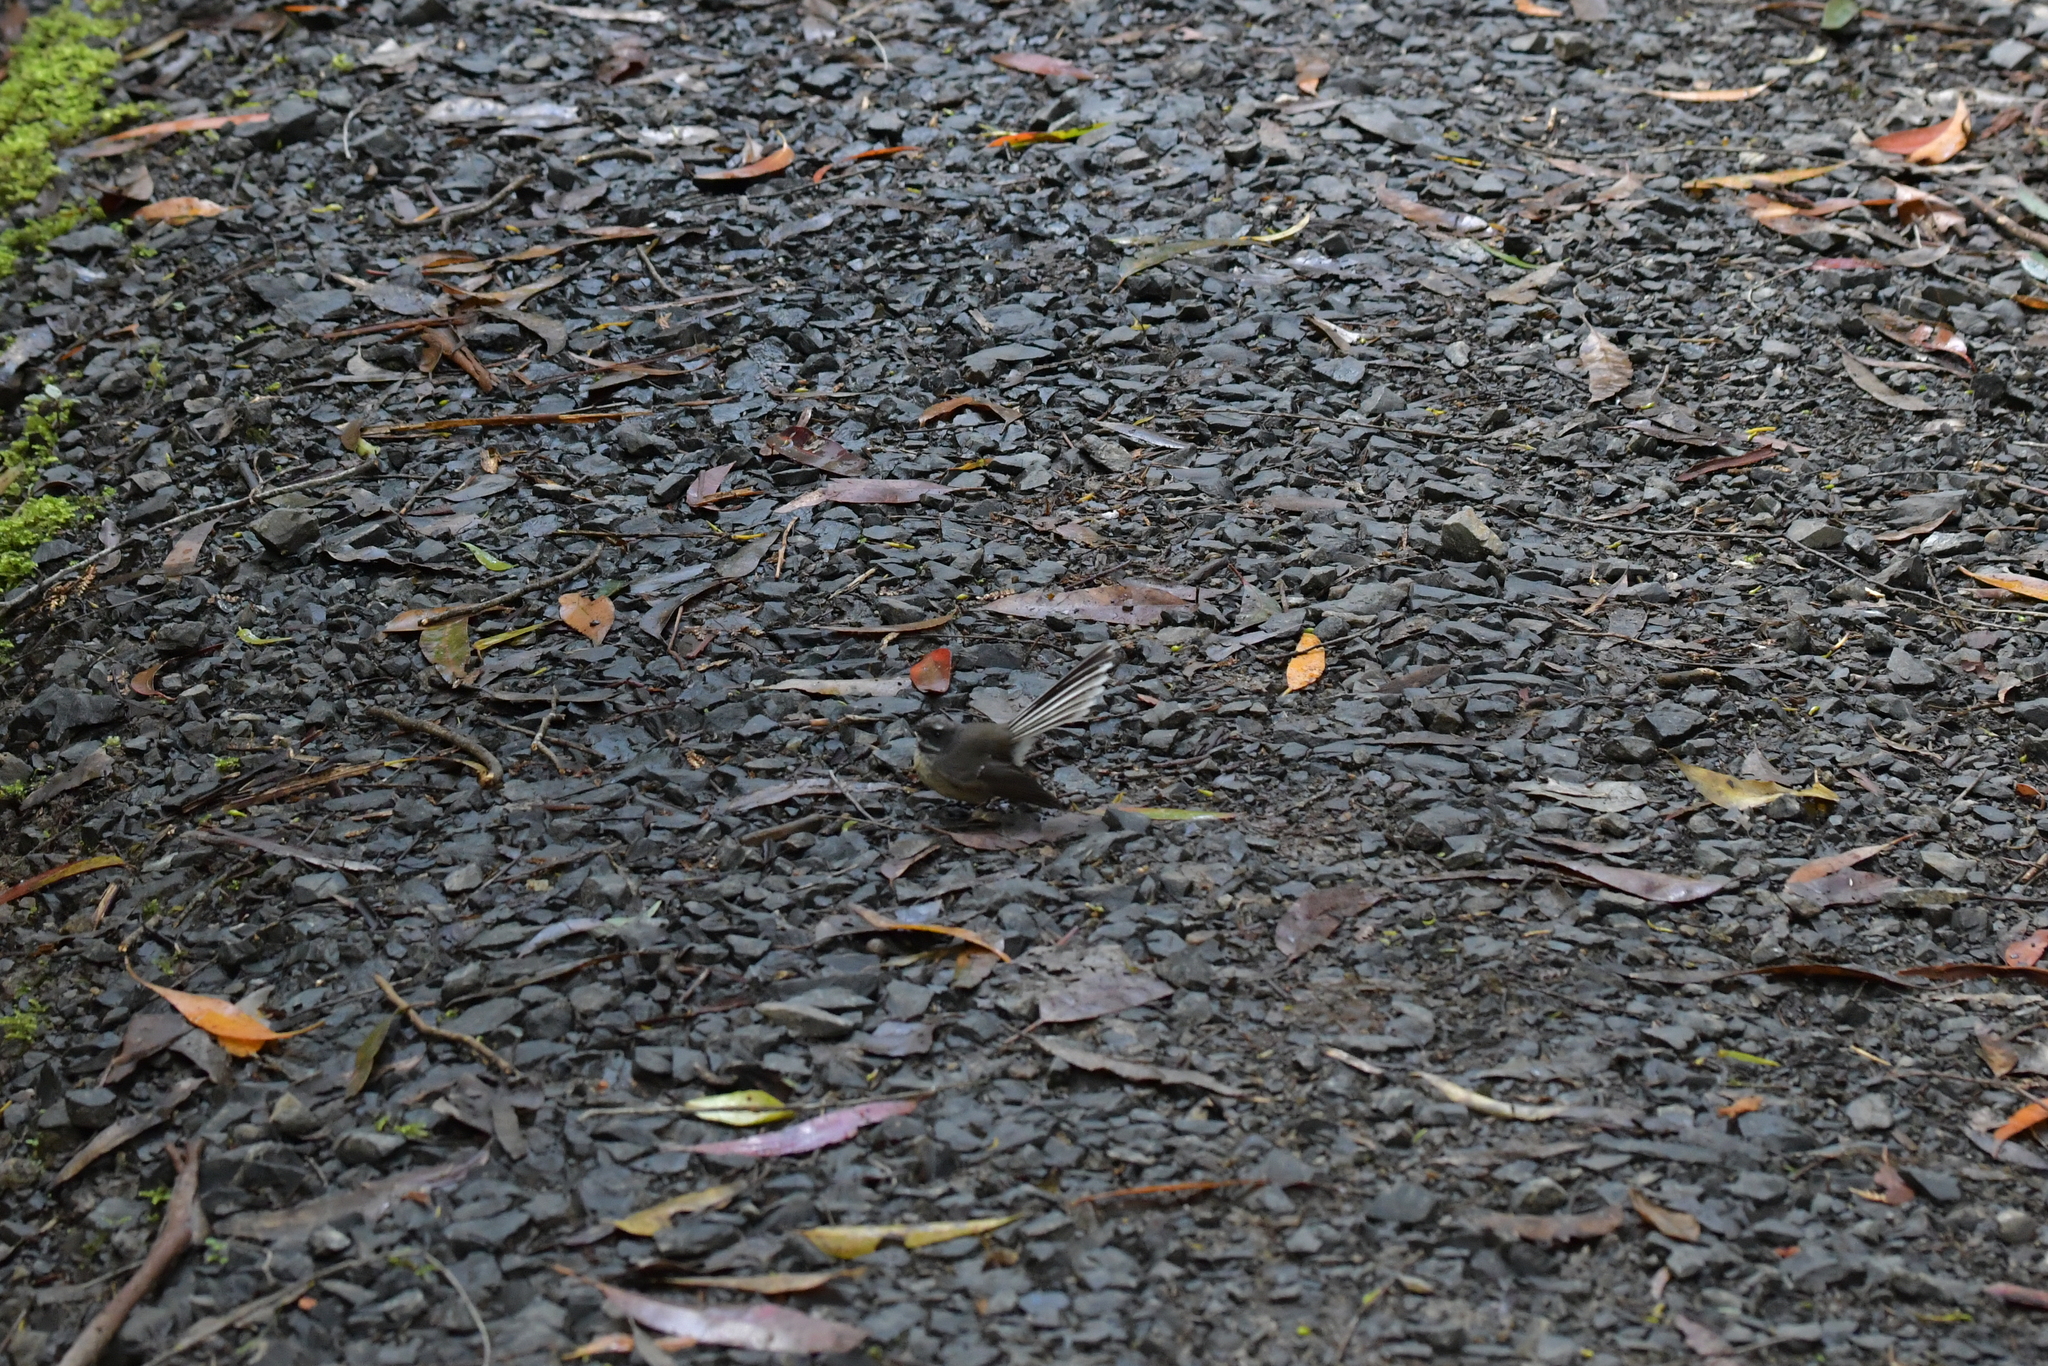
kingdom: Animalia
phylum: Chordata
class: Aves
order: Passeriformes
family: Rhipiduridae
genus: Rhipidura
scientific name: Rhipidura fuliginosa
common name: New zealand fantail
